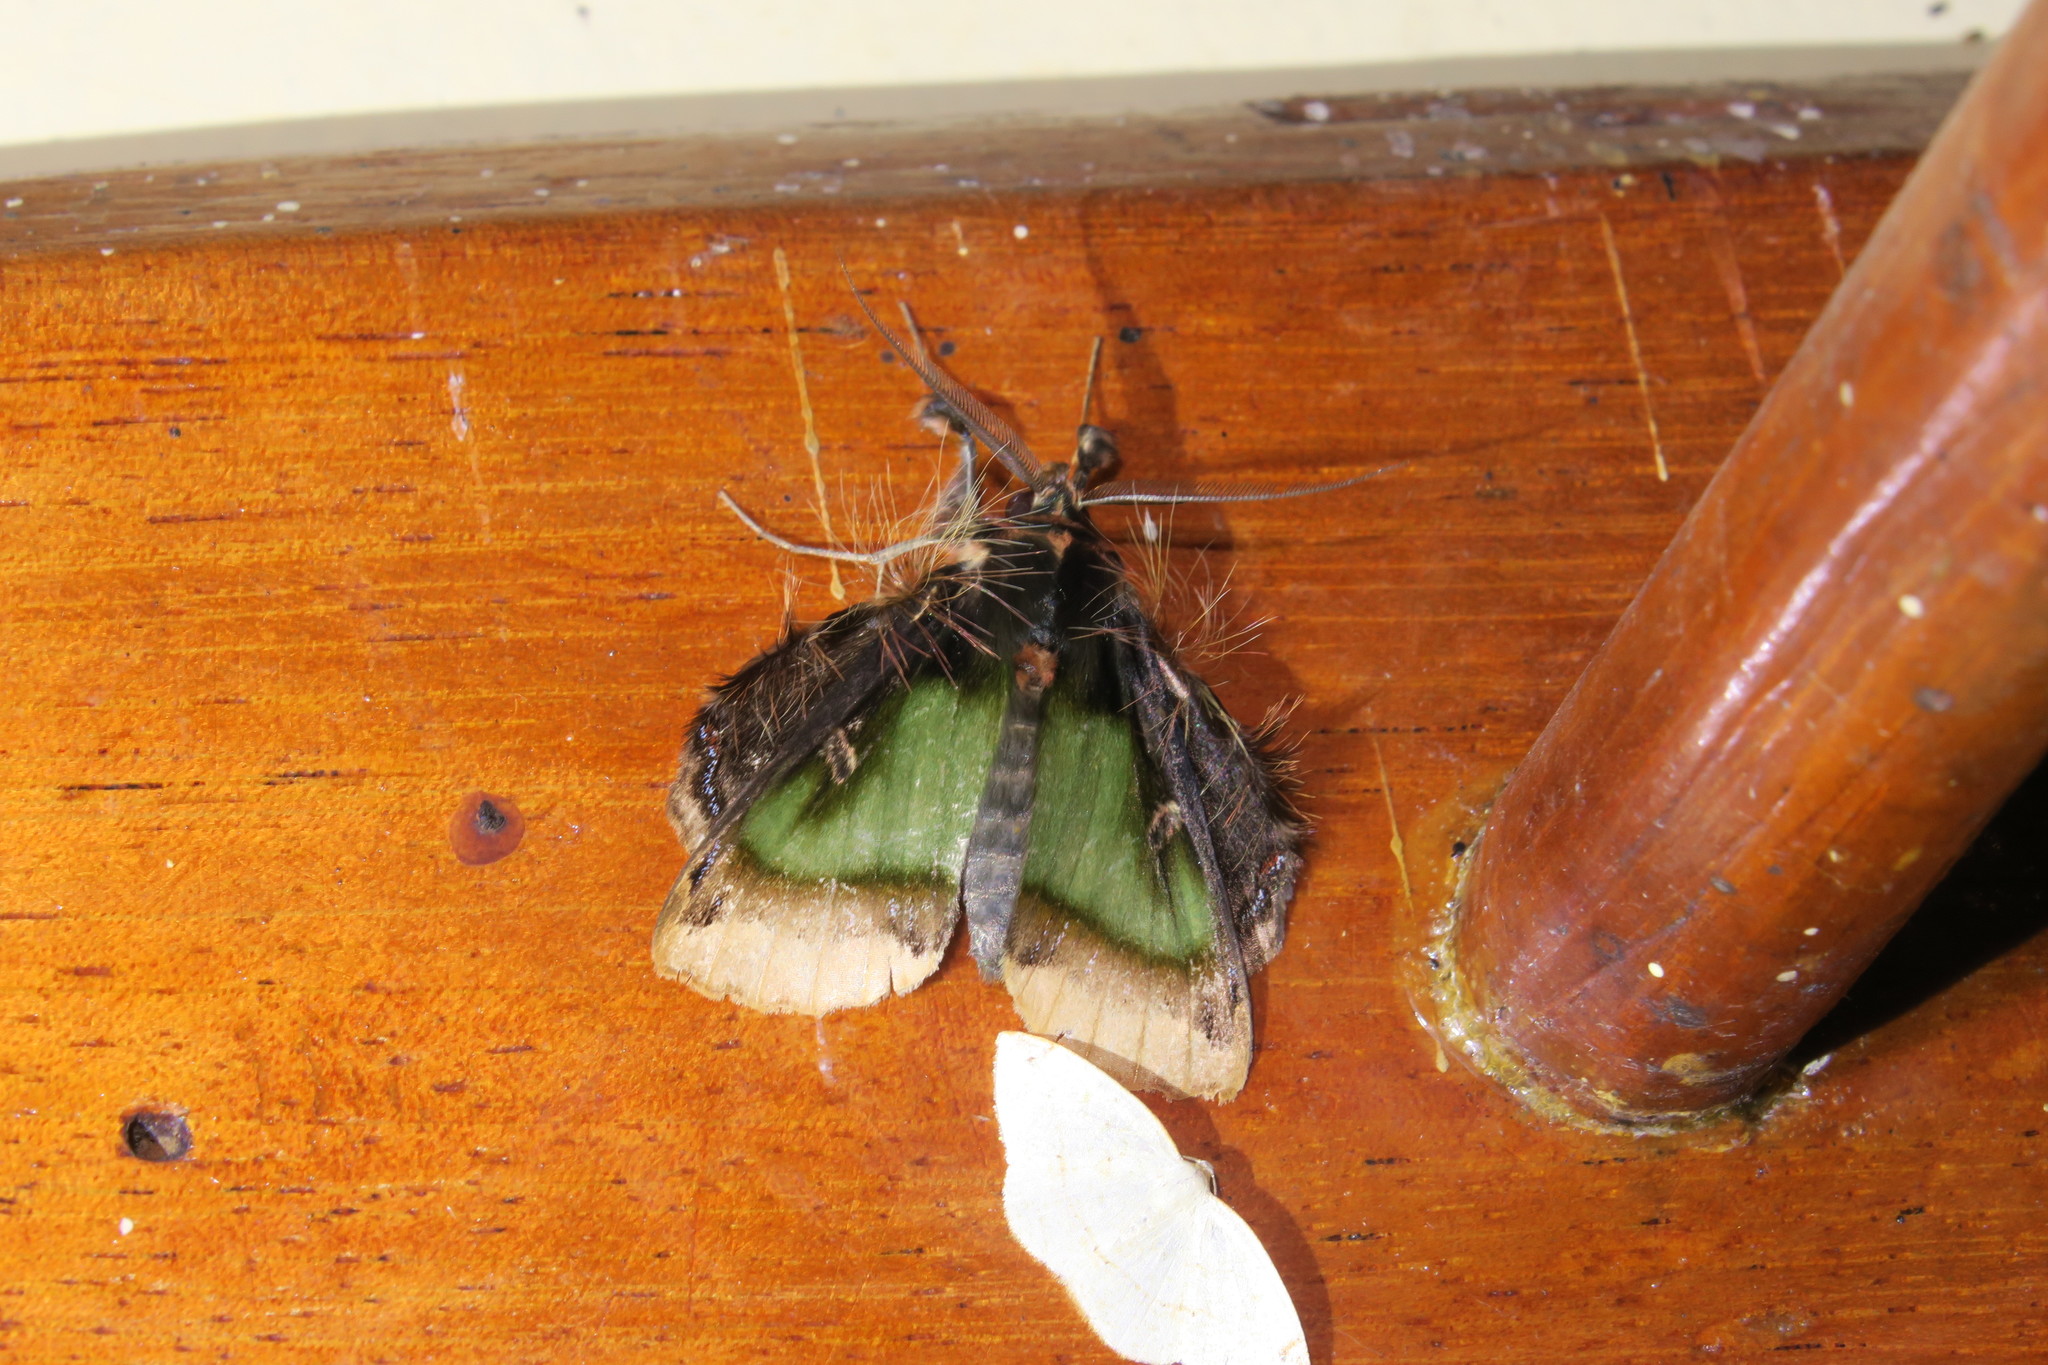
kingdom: Animalia
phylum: Arthropoda
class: Insecta
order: Lepidoptera
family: Erebidae
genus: Ceroctena
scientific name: Ceroctena amynta
